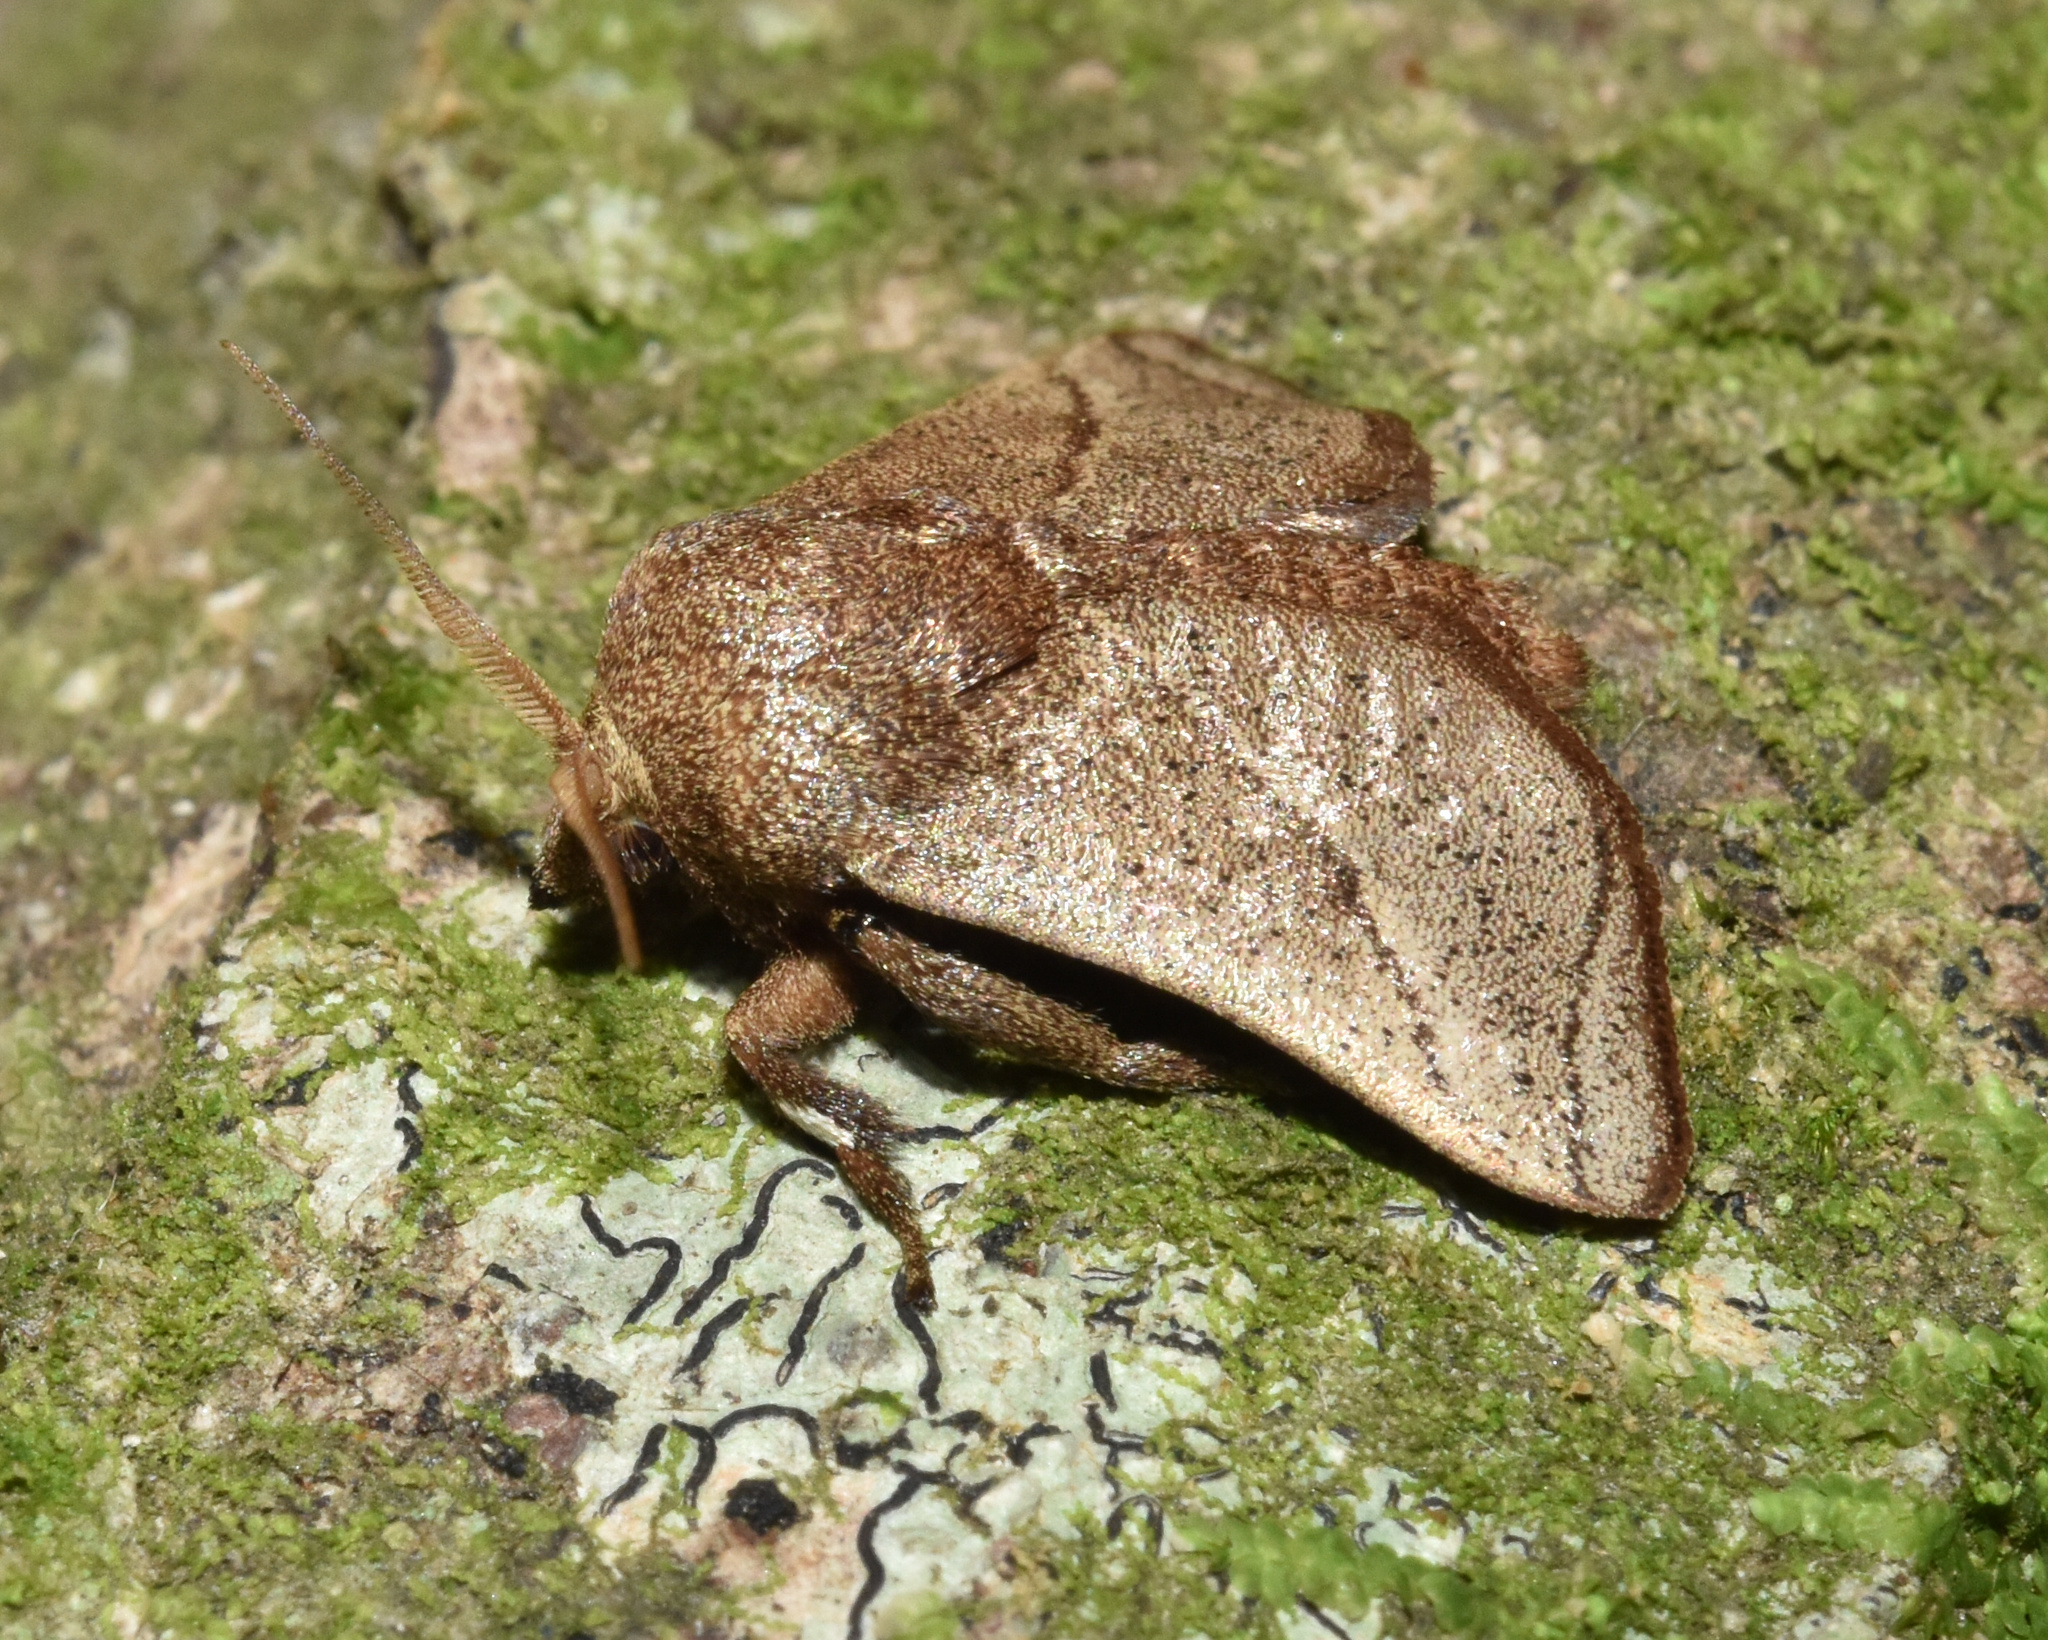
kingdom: Animalia
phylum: Arthropoda
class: Insecta
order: Lepidoptera
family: Limacodidae
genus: Neomocena
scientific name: Neomocena convergens
